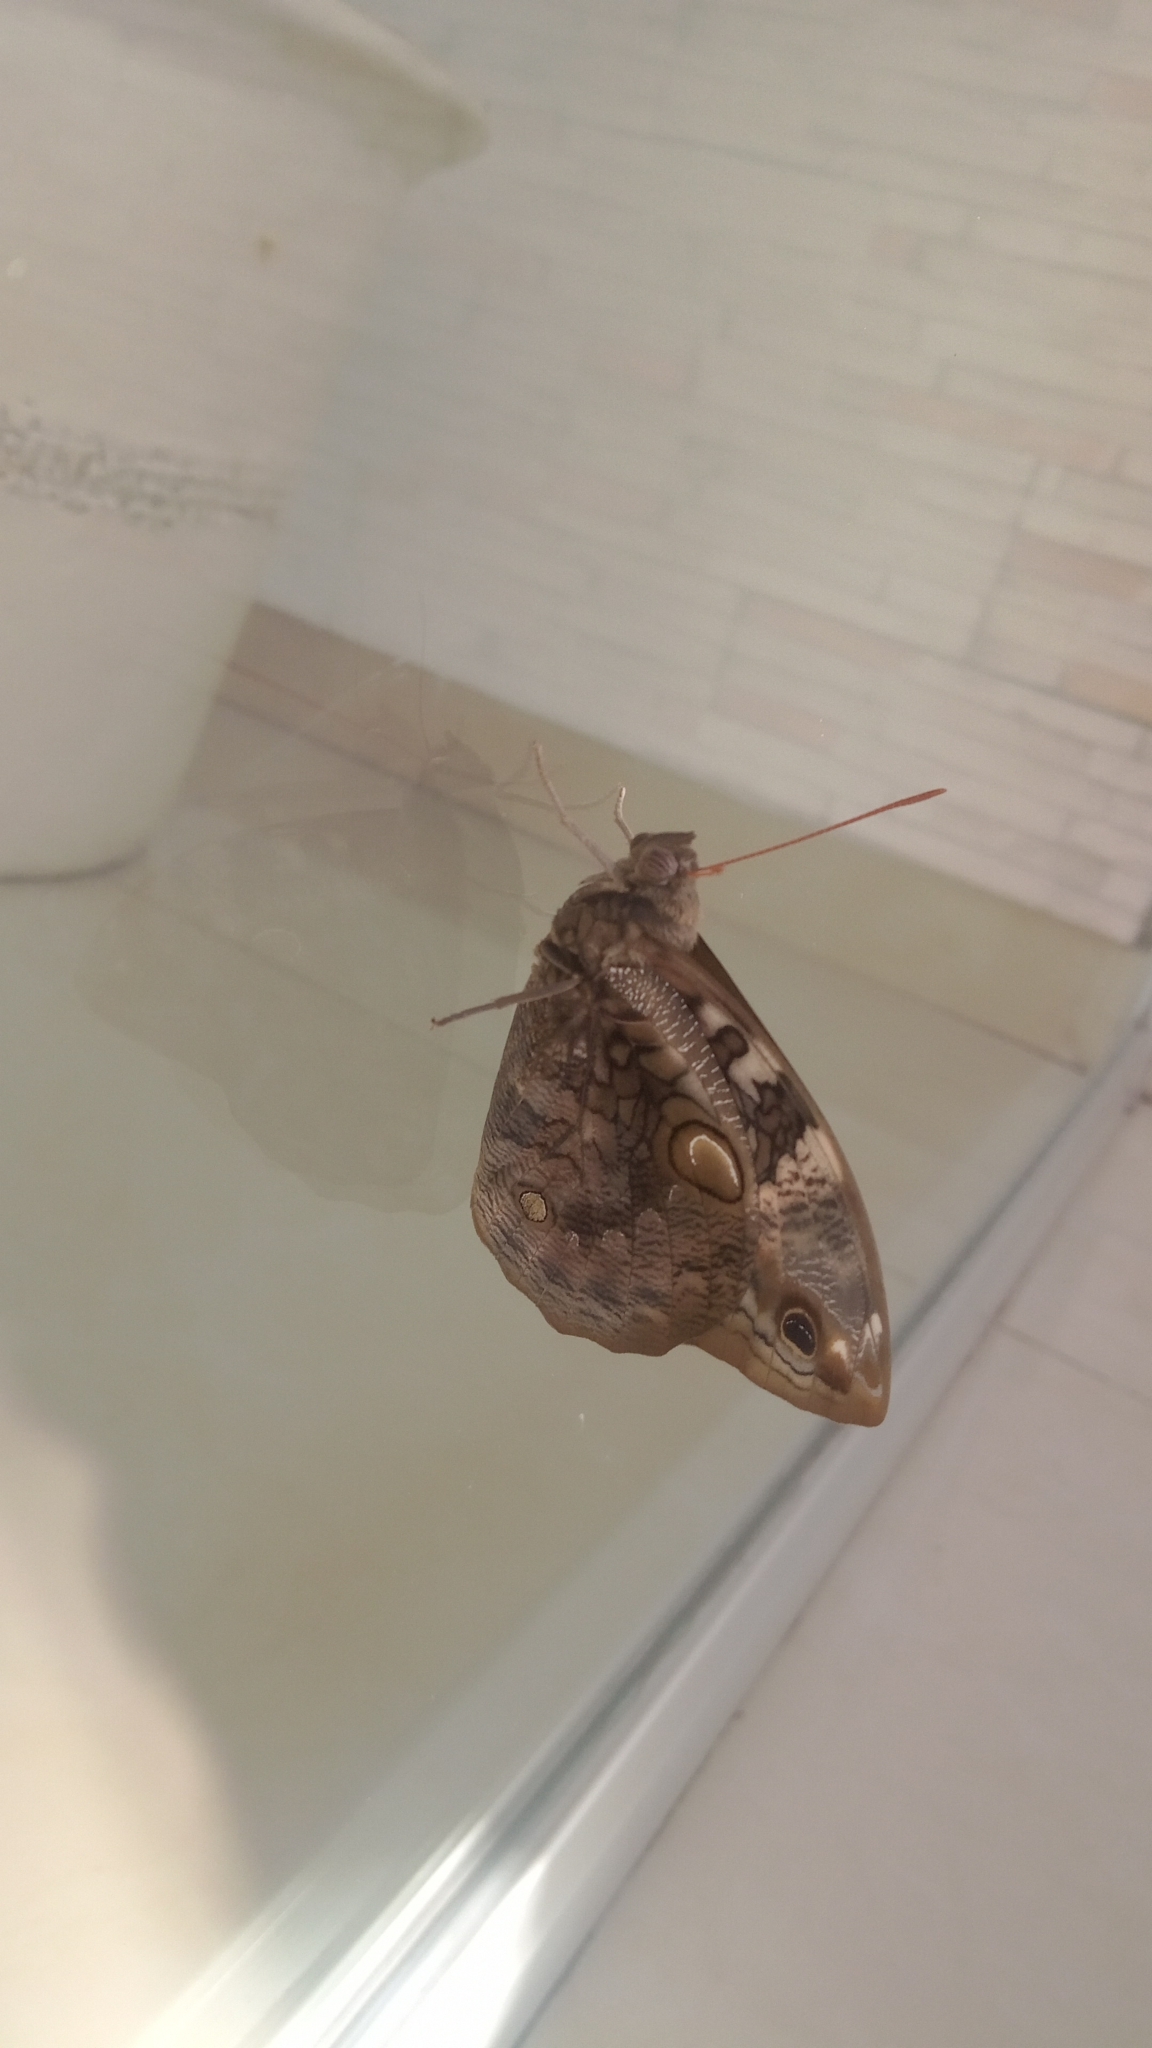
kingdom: Animalia
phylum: Arthropoda
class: Insecta
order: Lepidoptera
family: Nymphalidae
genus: Opsiphanes
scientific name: Opsiphanes invirae
